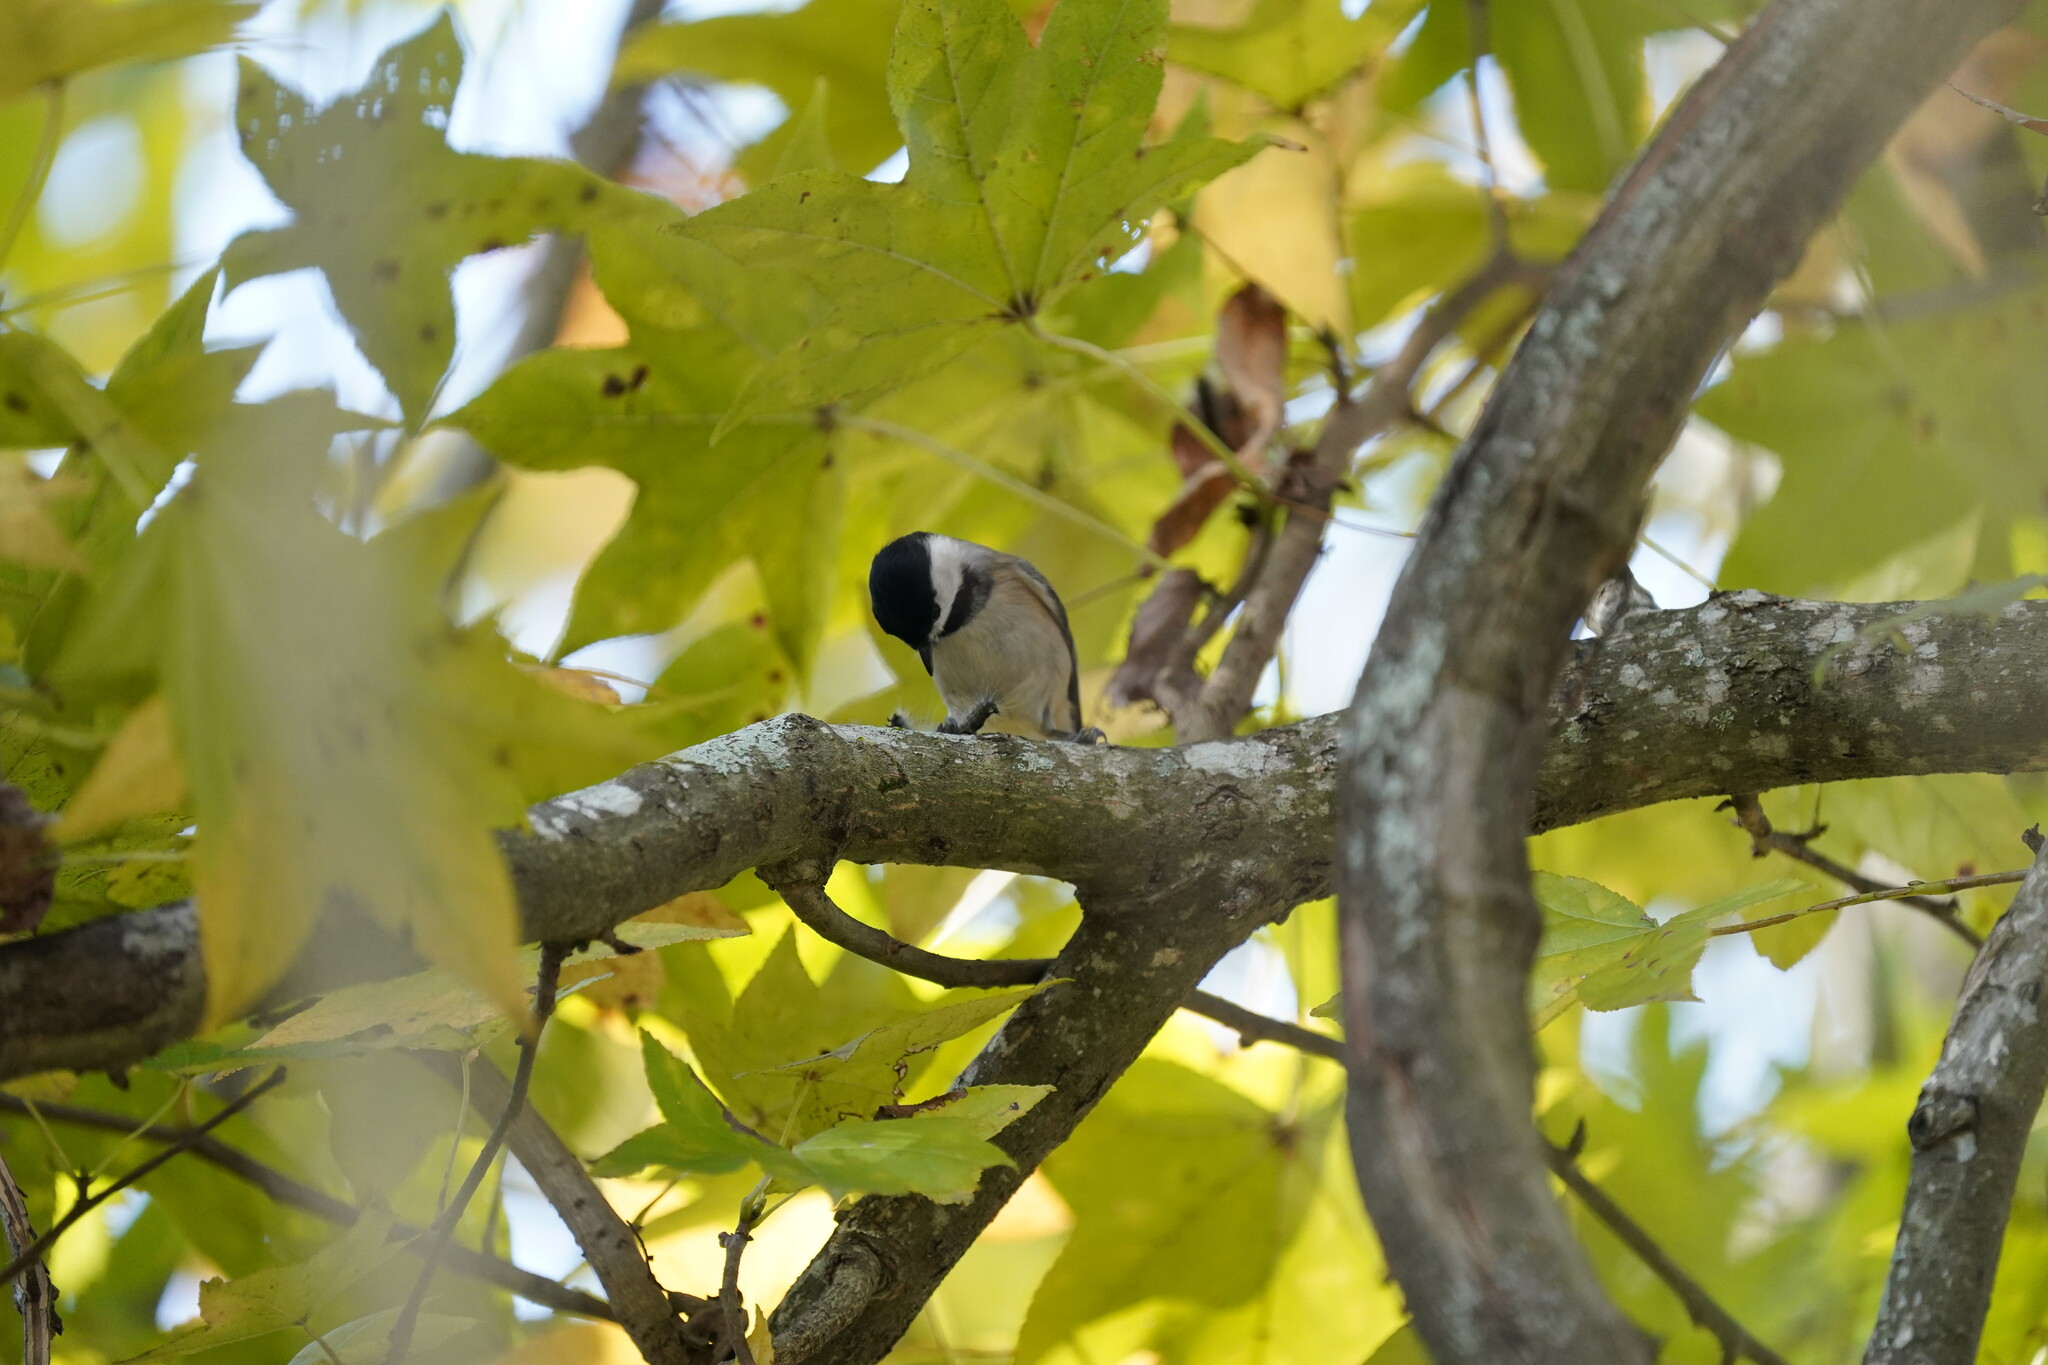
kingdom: Animalia
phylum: Chordata
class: Aves
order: Passeriformes
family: Paridae
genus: Poecile
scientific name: Poecile carolinensis
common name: Carolina chickadee
